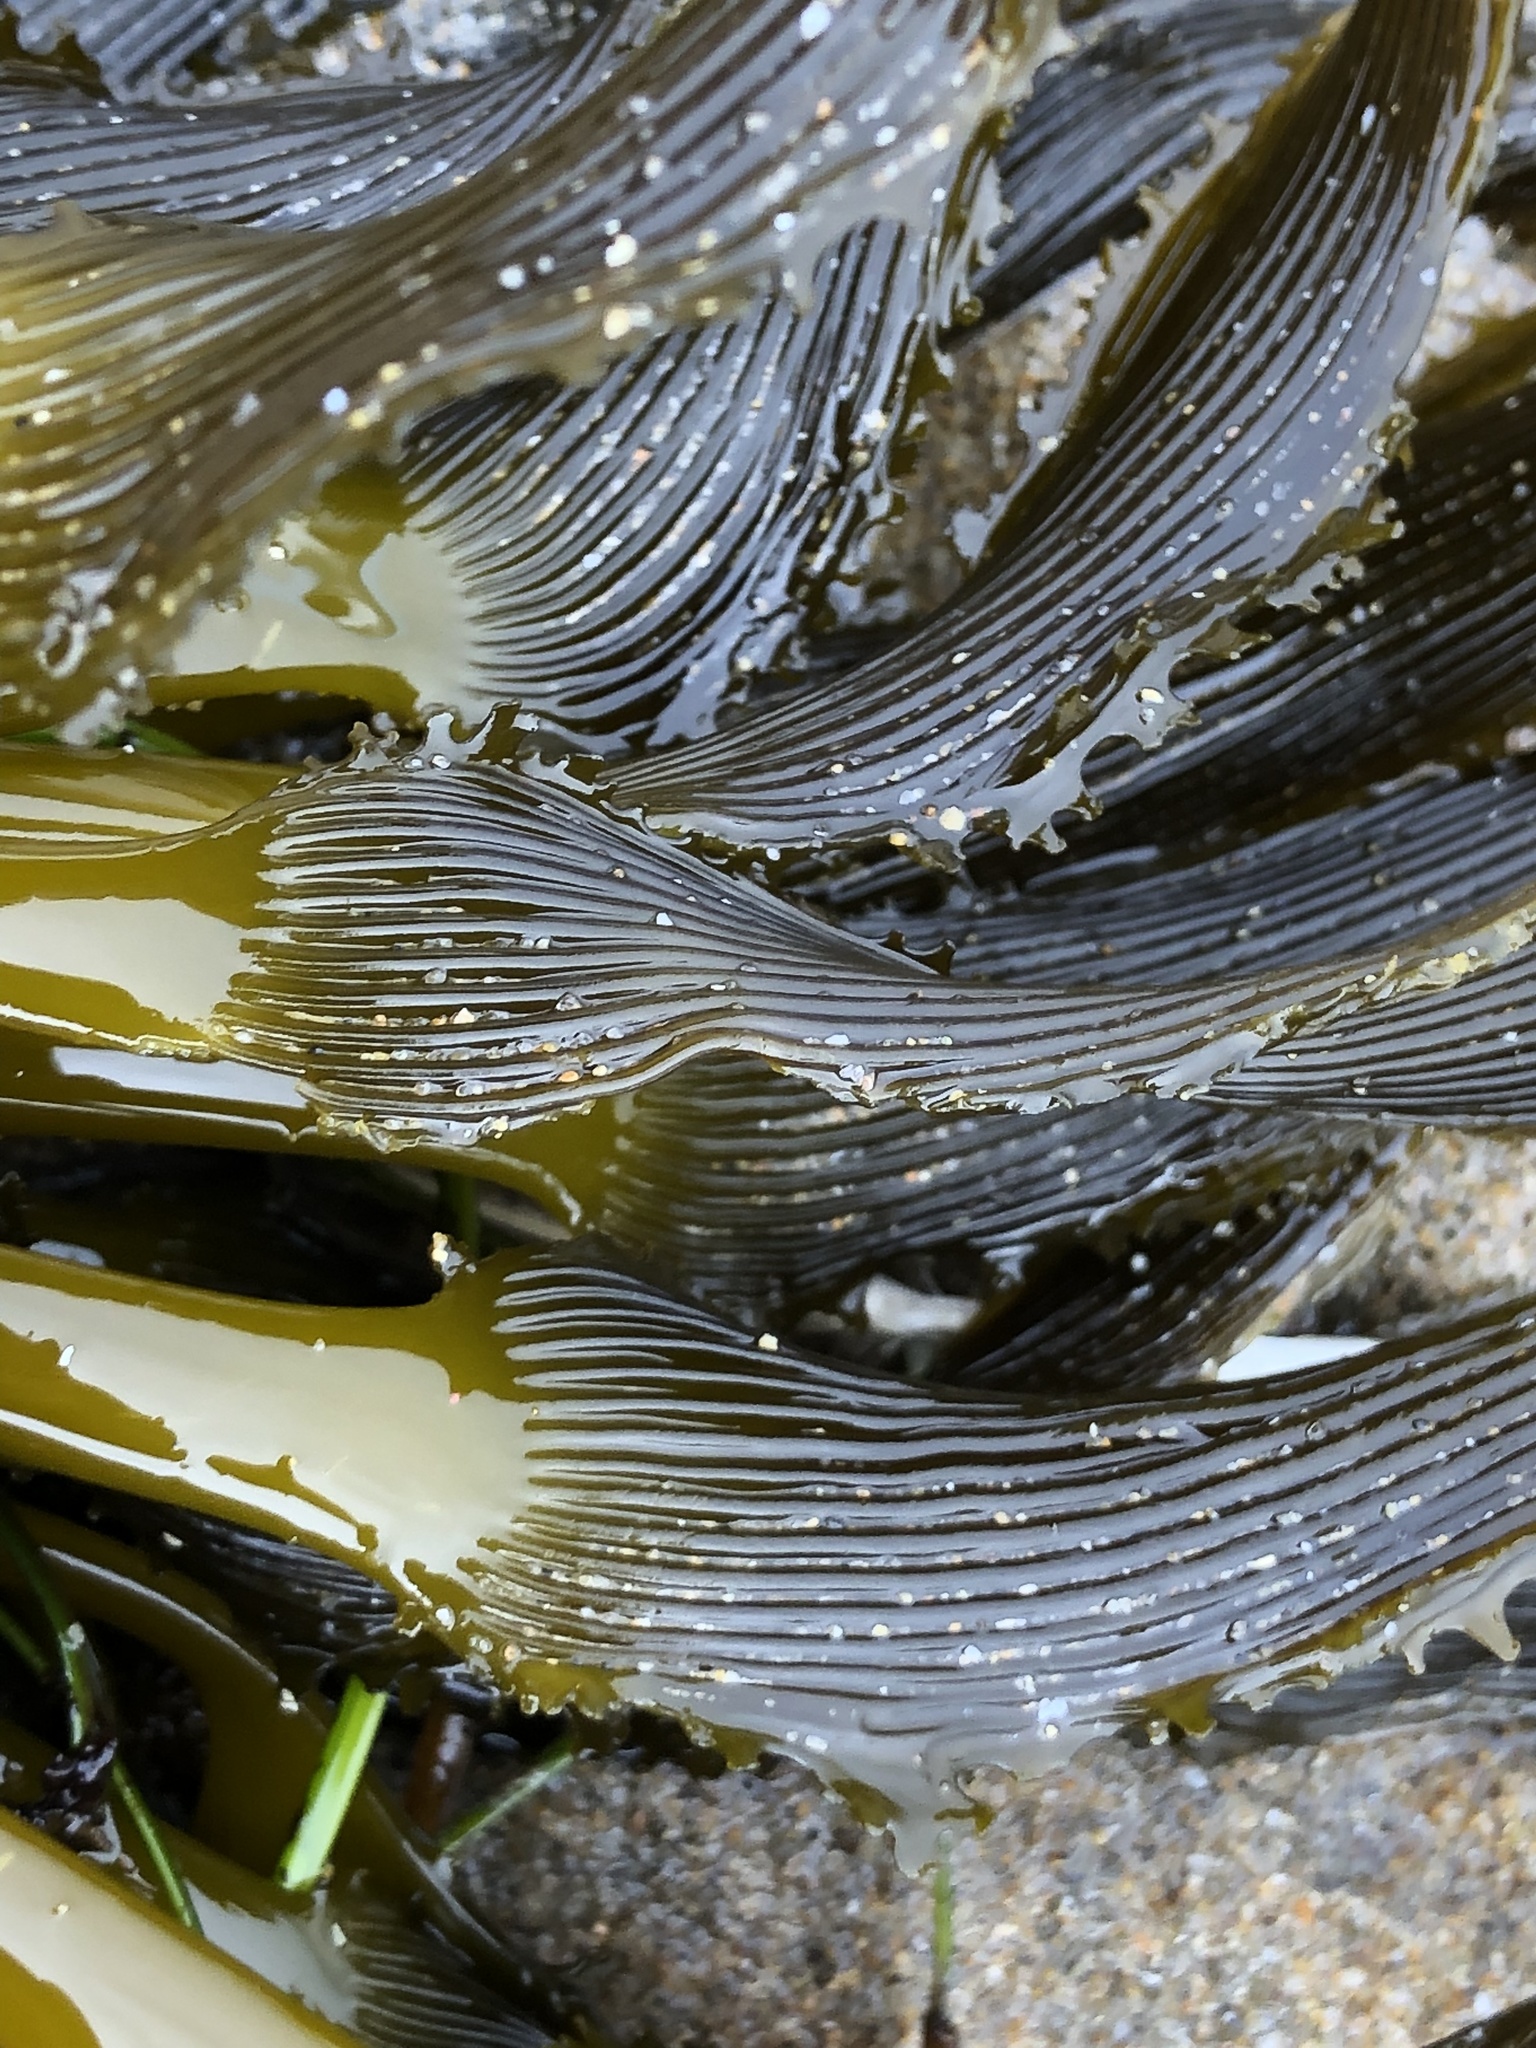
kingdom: Chromista
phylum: Ochrophyta
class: Phaeophyceae
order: Laminariales
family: Laminariaceae
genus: Postelsia
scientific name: Postelsia palmiformis
